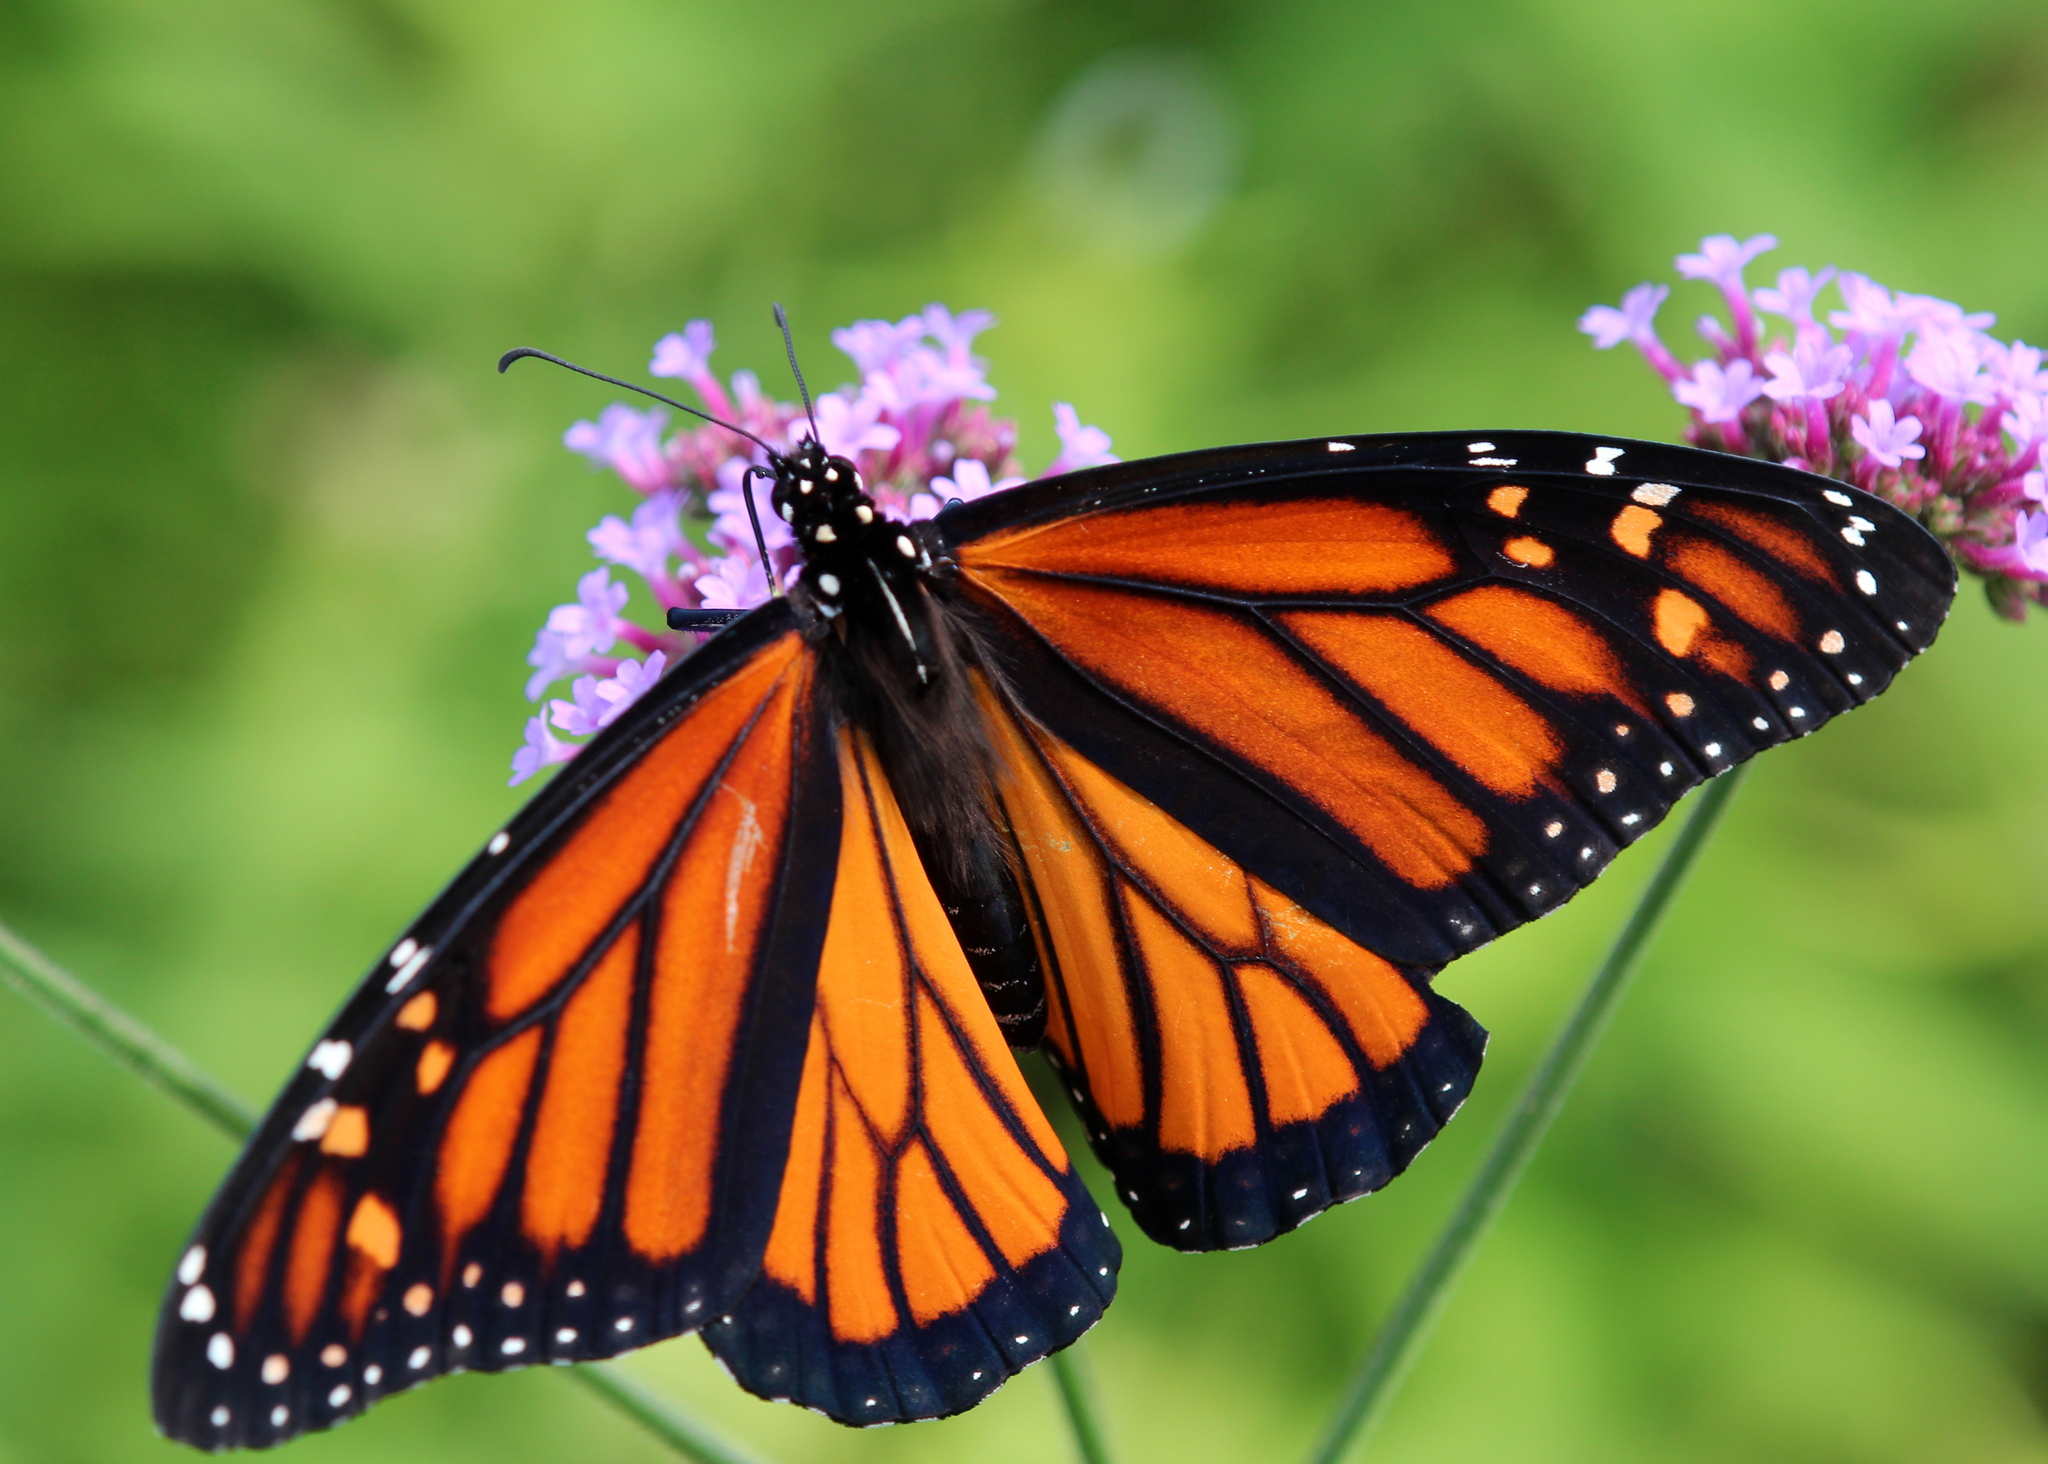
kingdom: Animalia
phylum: Arthropoda
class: Insecta
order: Lepidoptera
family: Nymphalidae
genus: Danaus
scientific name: Danaus plexippus
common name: Monarch
